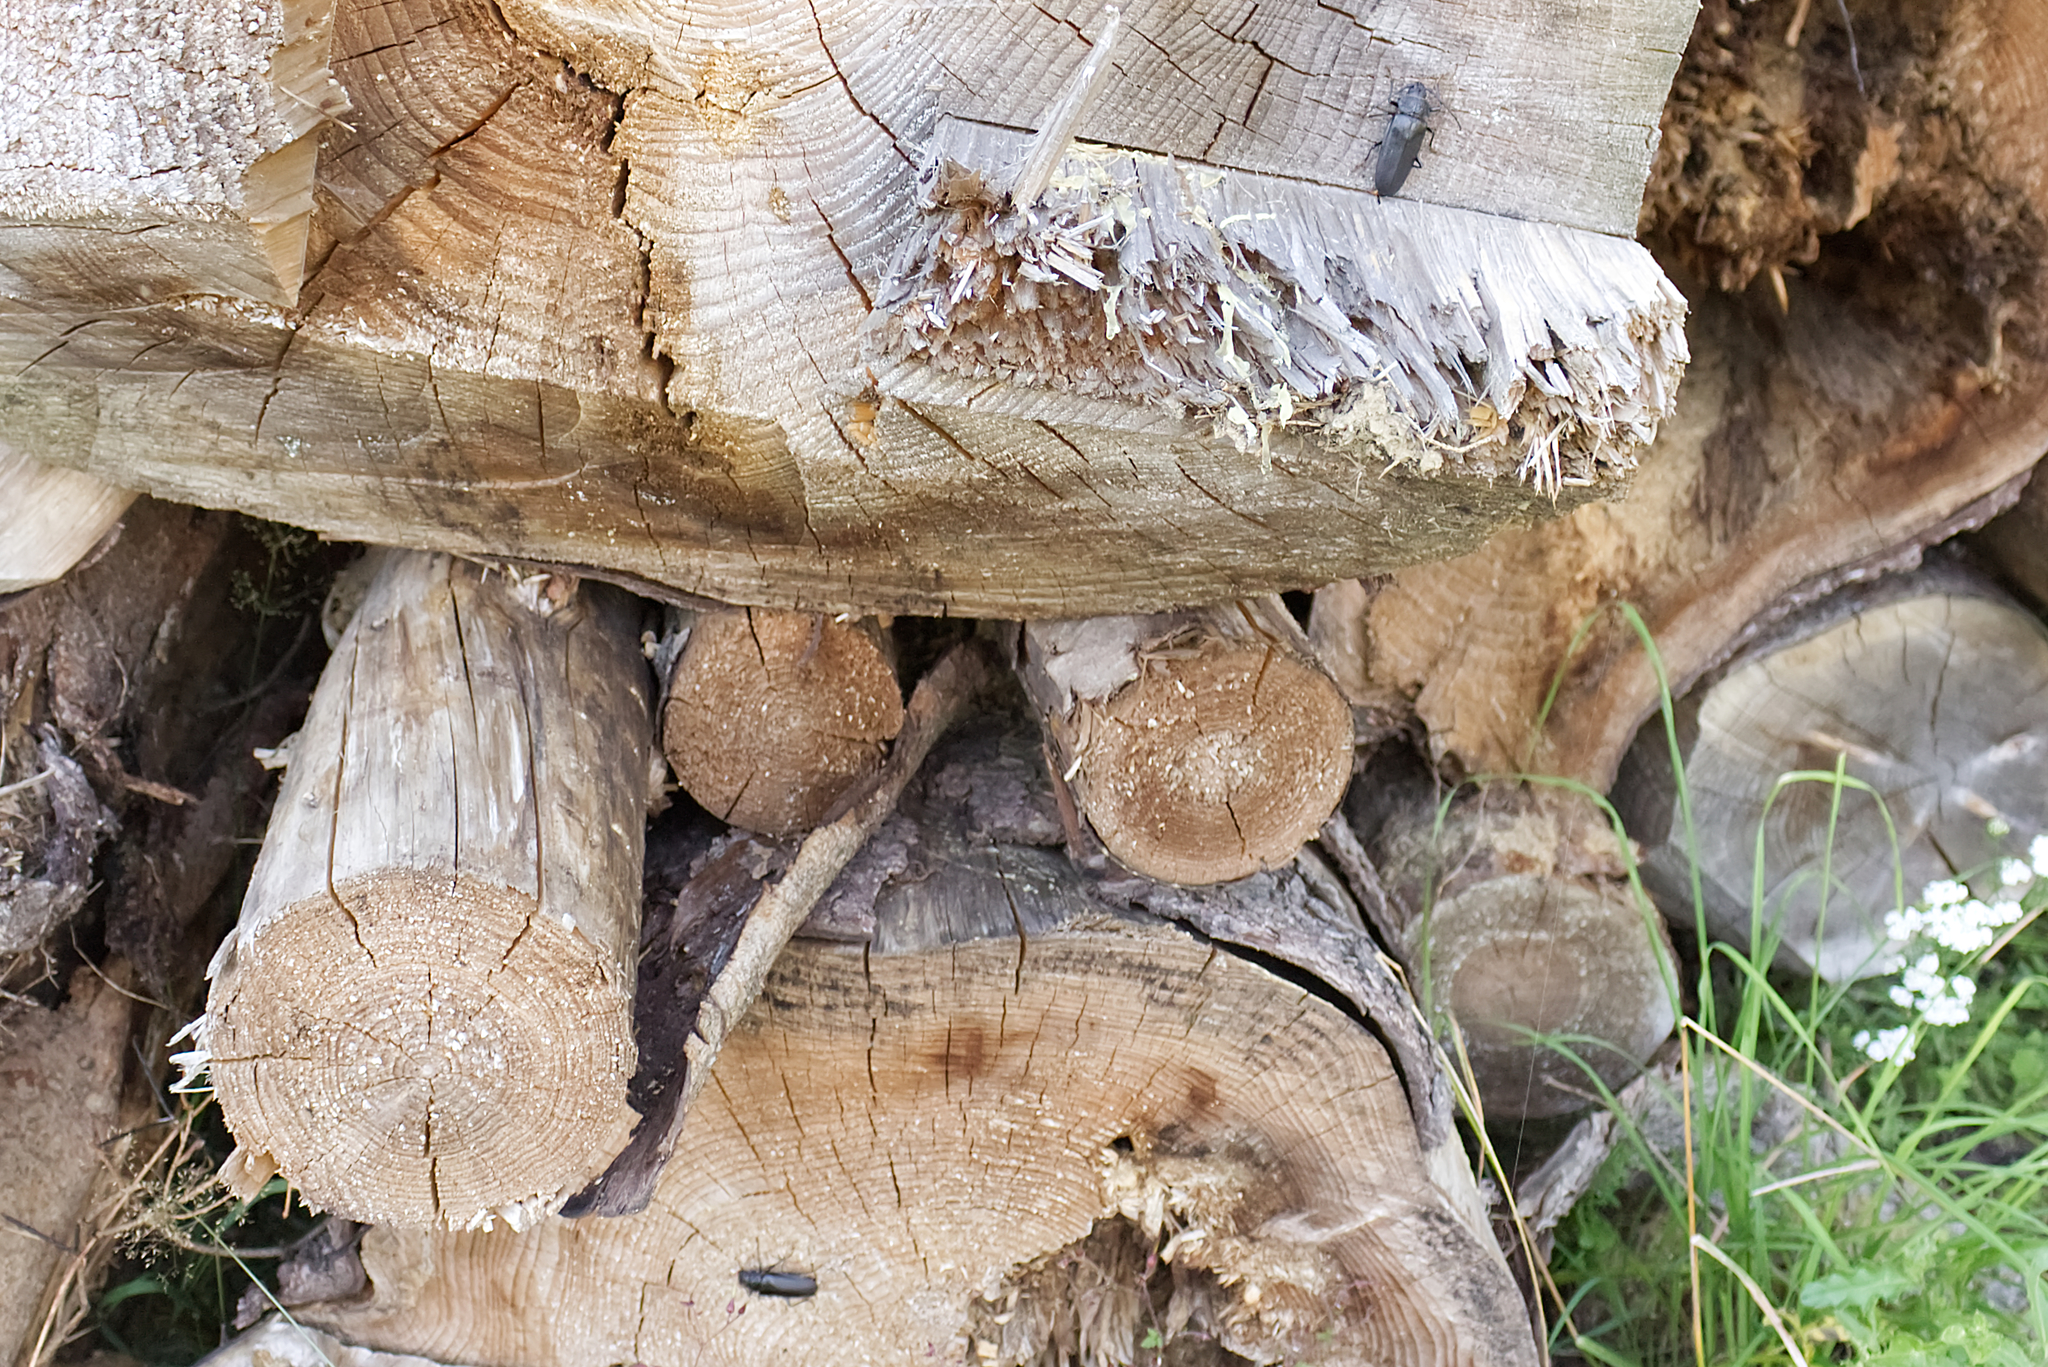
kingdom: Animalia
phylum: Arthropoda
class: Insecta
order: Coleoptera
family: Cerambycidae
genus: Ergates
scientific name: Ergates faber
